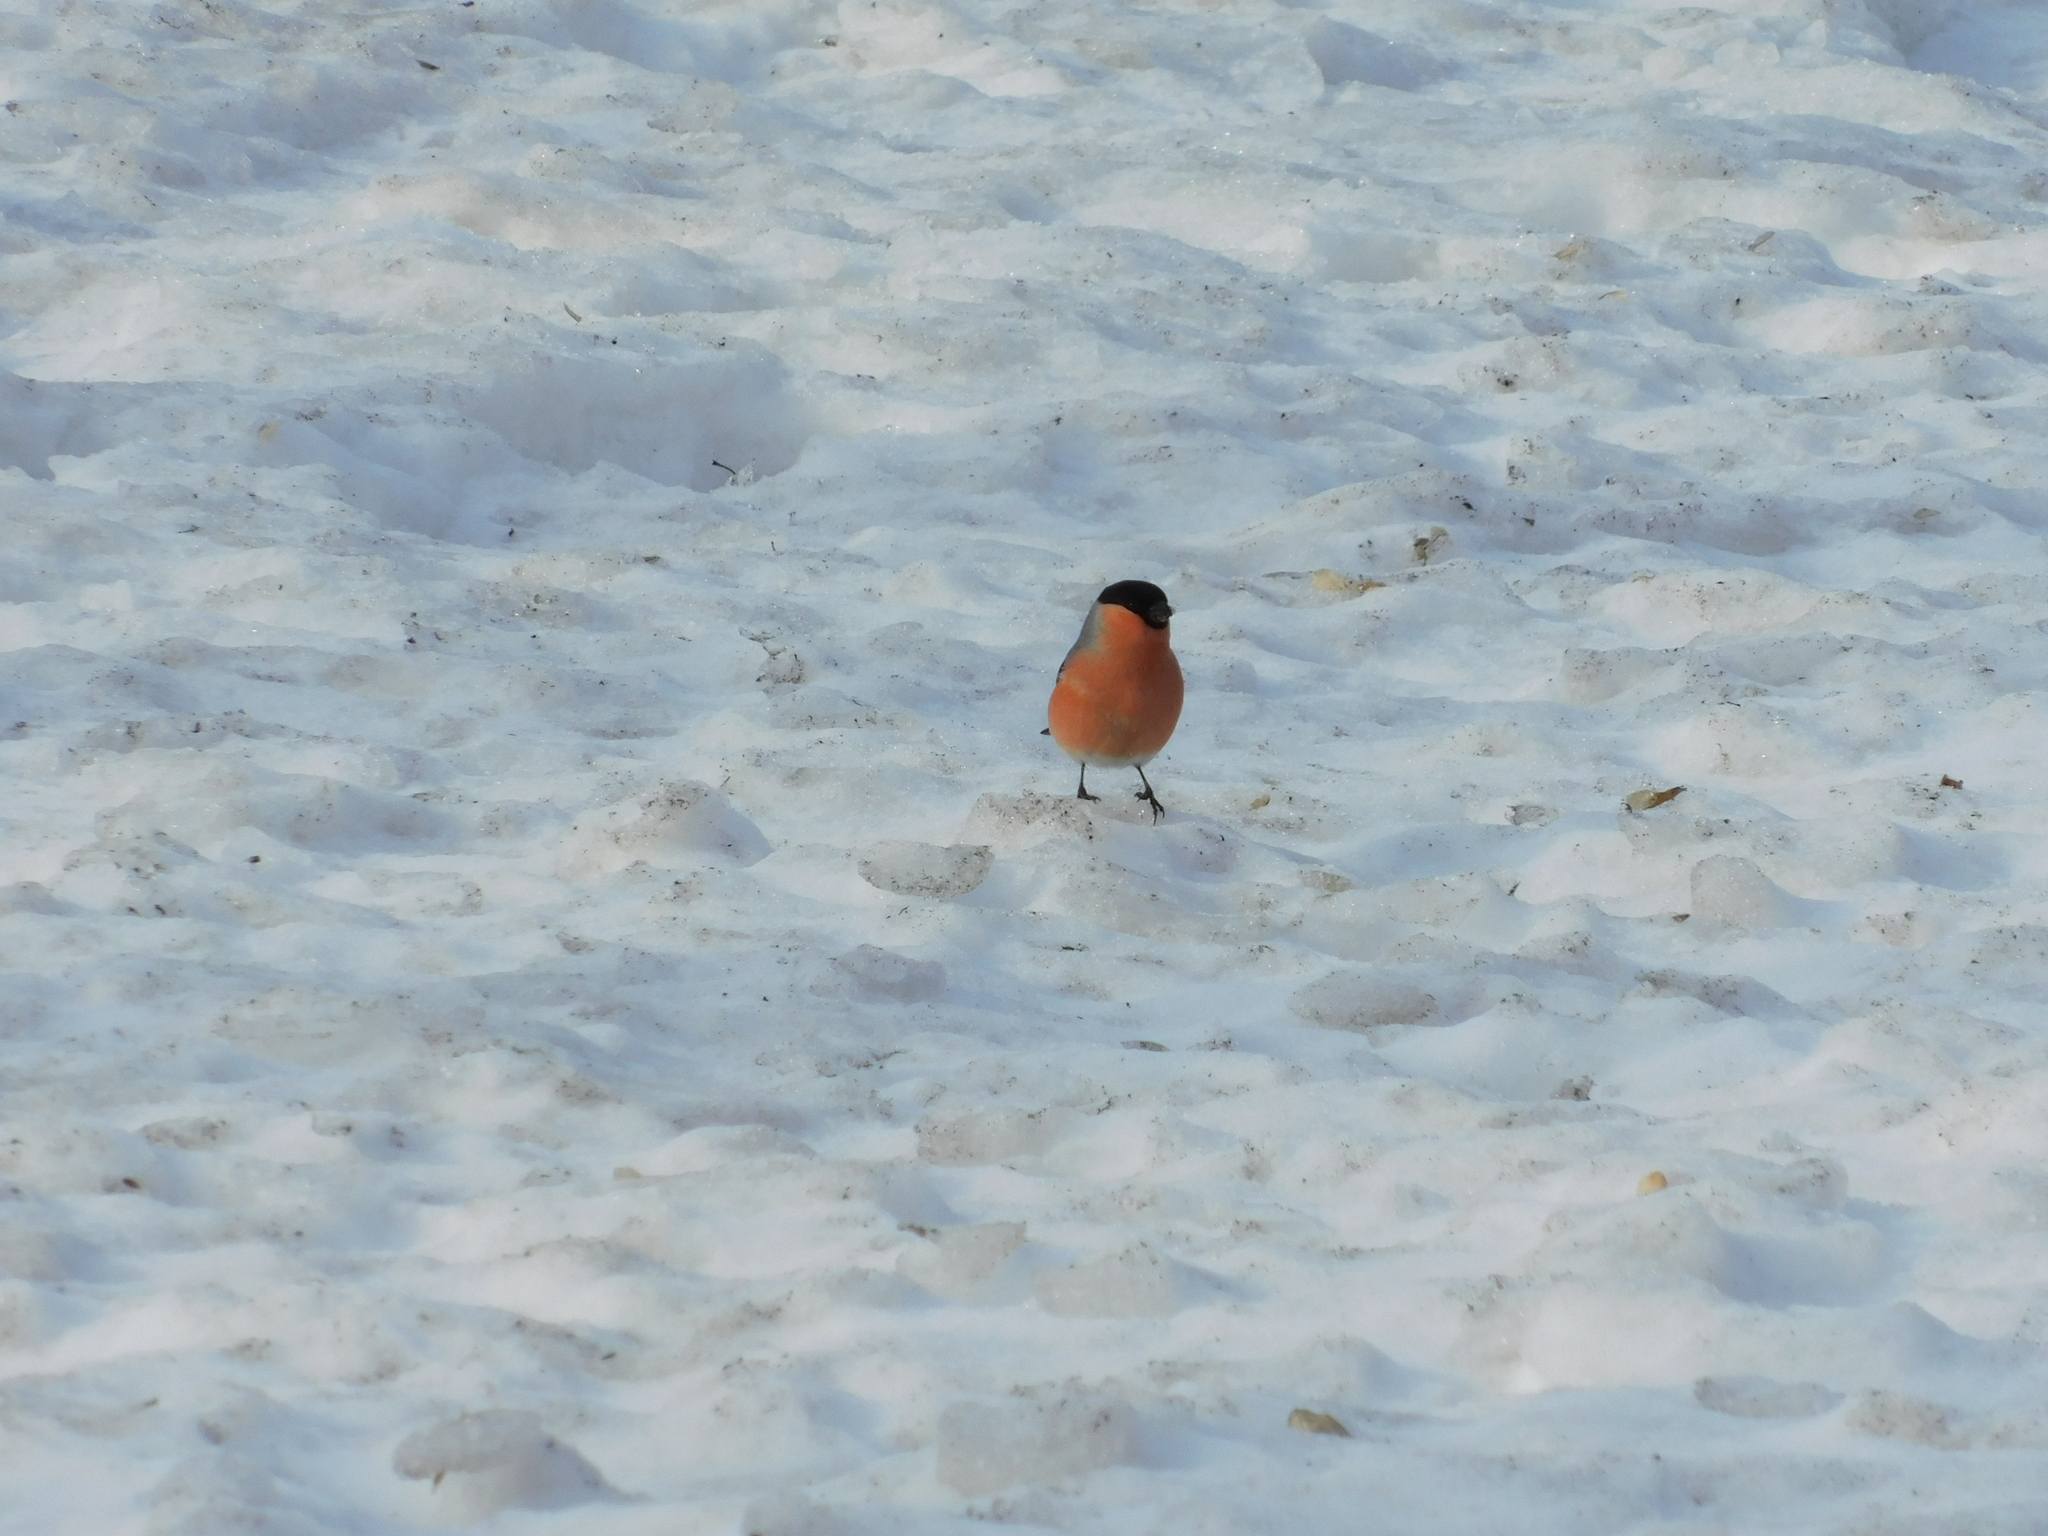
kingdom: Animalia
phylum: Chordata
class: Aves
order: Passeriformes
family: Fringillidae
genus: Pyrrhula
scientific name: Pyrrhula pyrrhula
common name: Eurasian bullfinch
